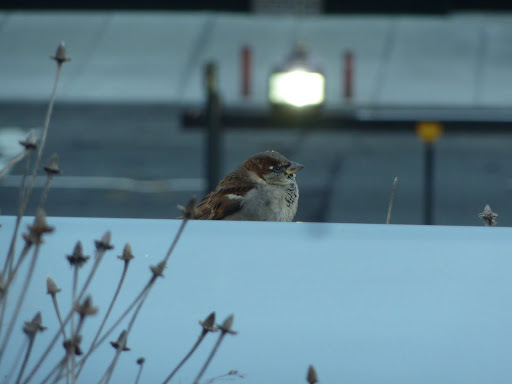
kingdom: Animalia
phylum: Chordata
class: Aves
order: Passeriformes
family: Passeridae
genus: Passer
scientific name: Passer domesticus
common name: House sparrow
